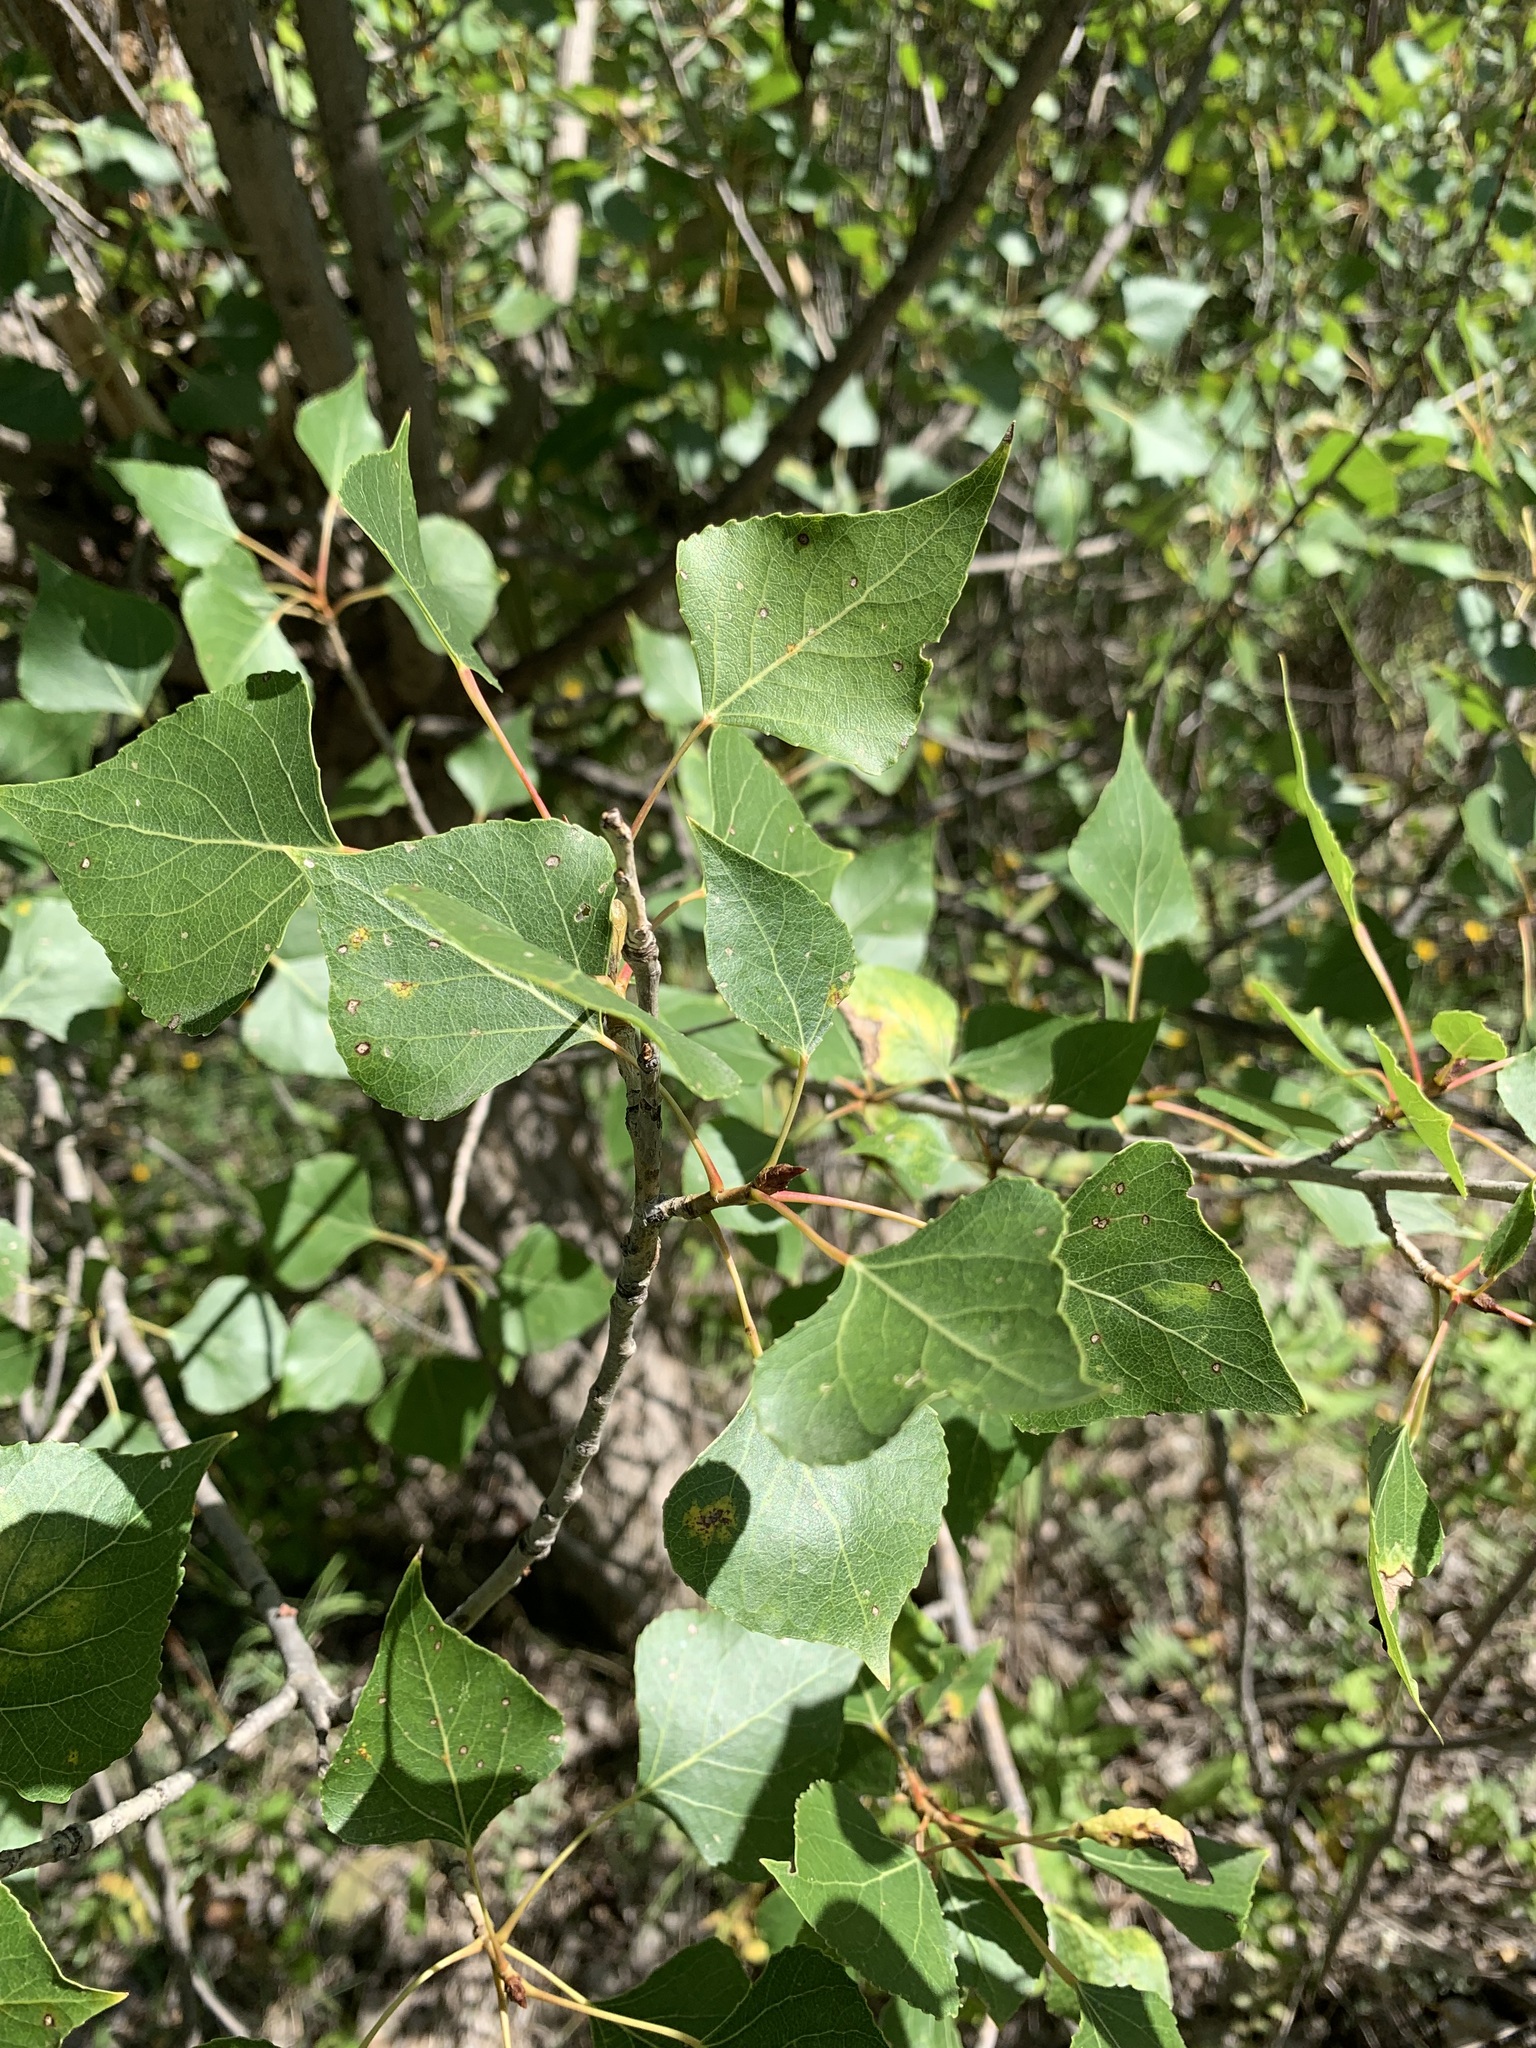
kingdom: Plantae
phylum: Tracheophyta
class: Magnoliopsida
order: Malpighiales
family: Salicaceae
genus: Populus
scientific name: Populus nigra
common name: Black poplar
